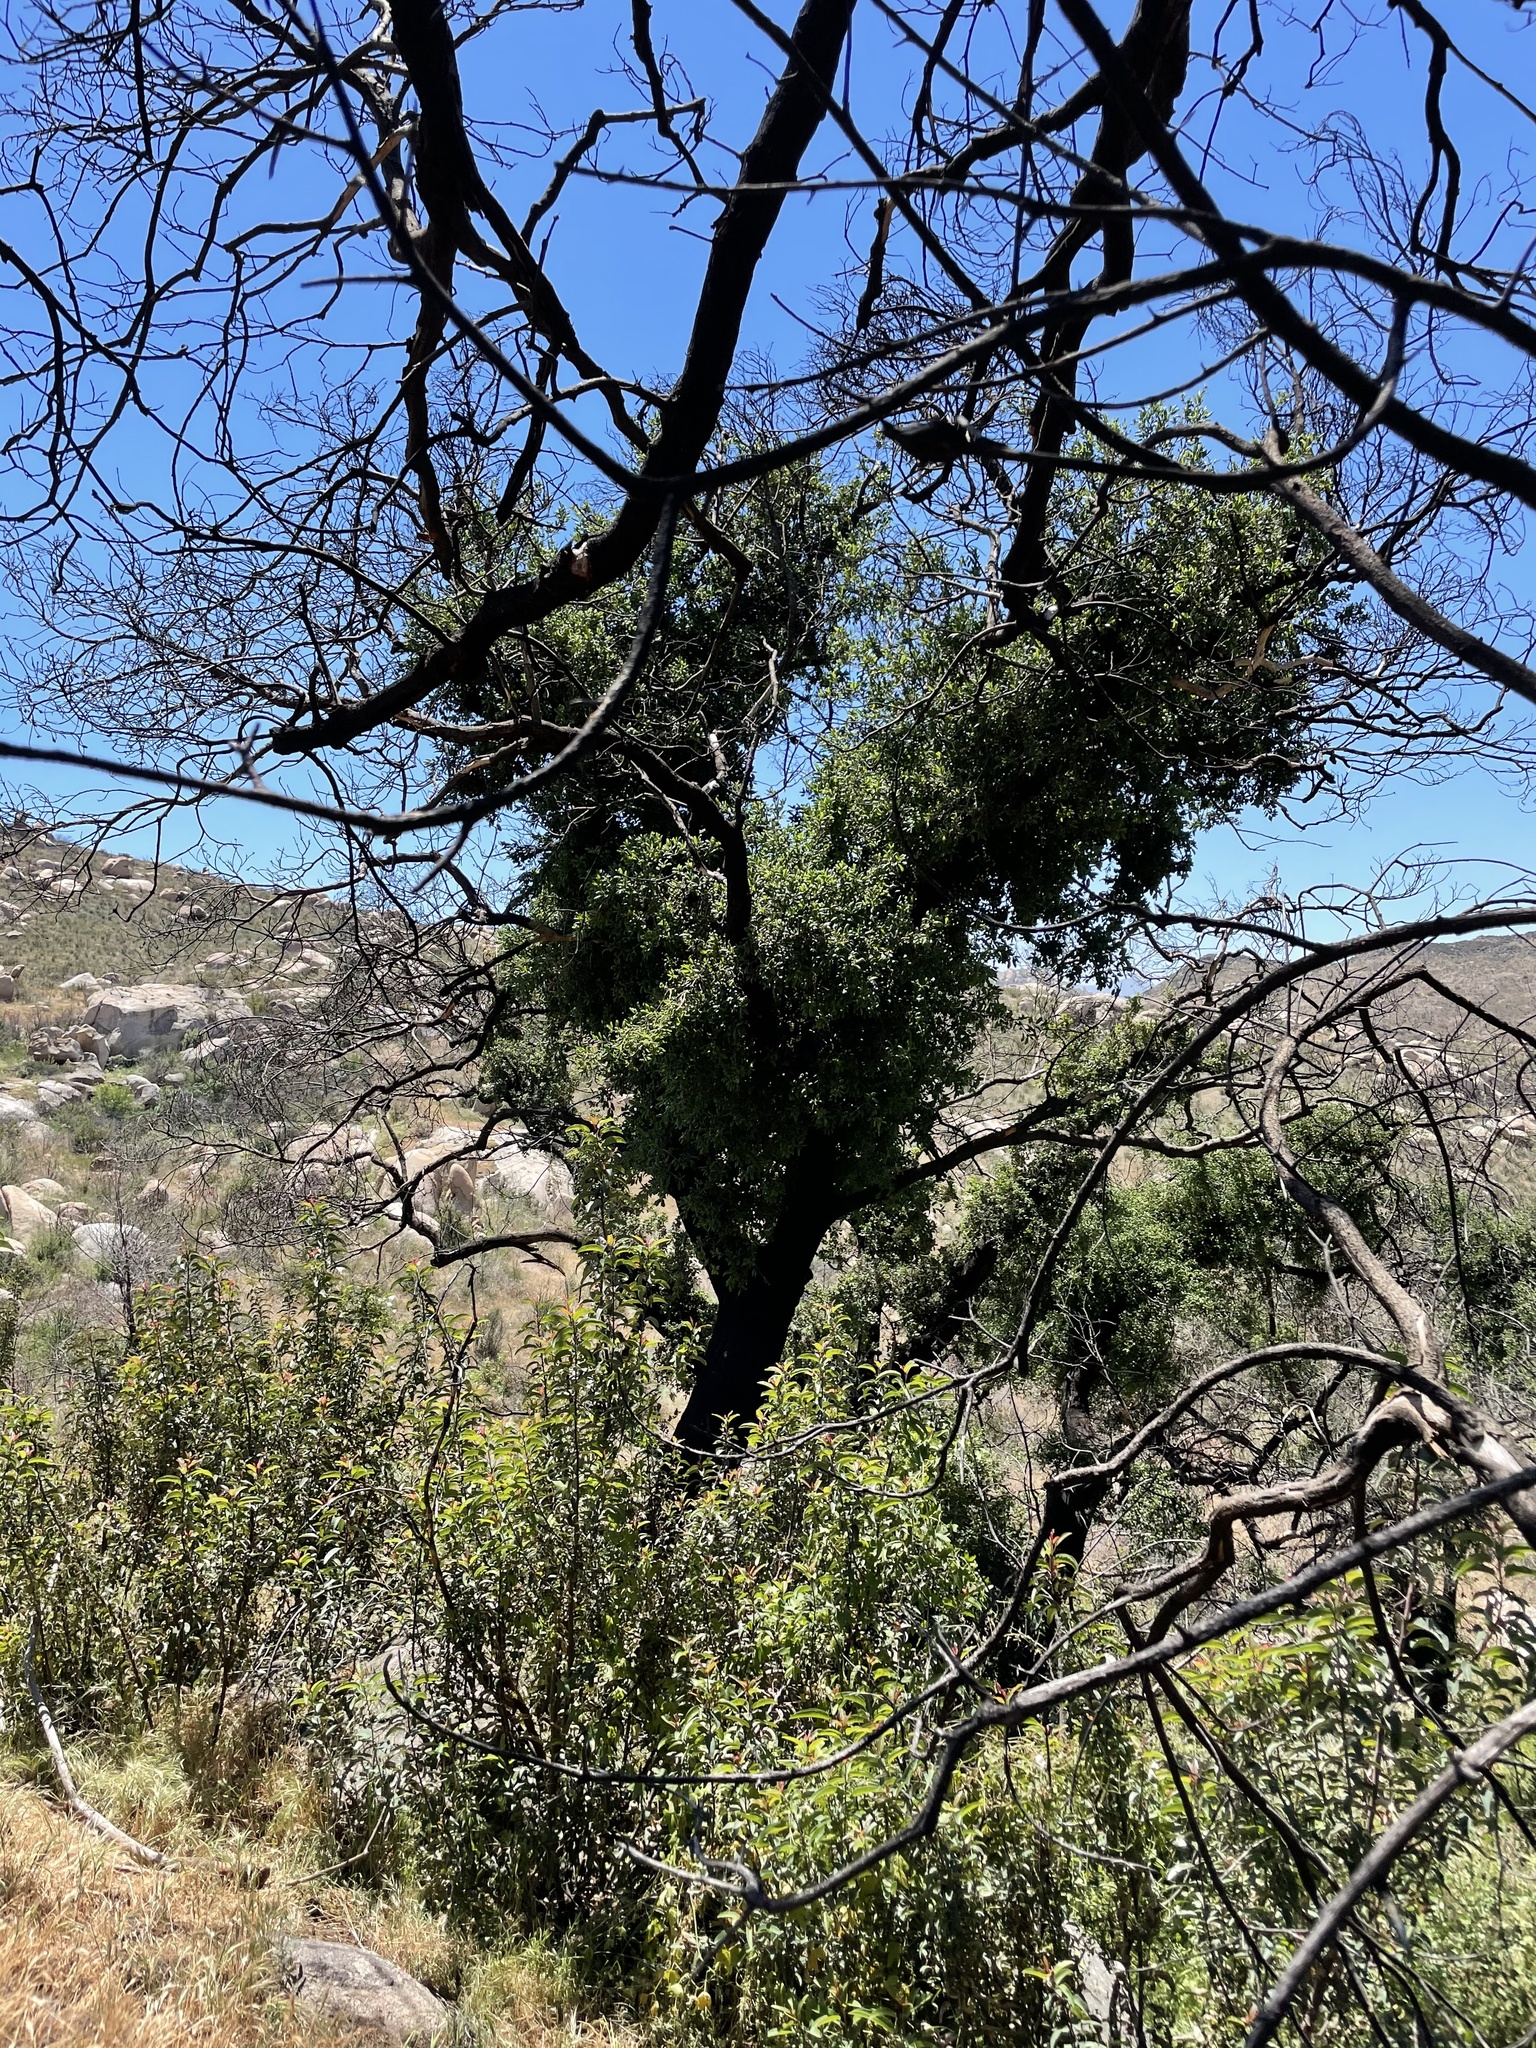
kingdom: Plantae
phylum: Tracheophyta
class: Magnoliopsida
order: Fagales
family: Fagaceae
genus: Quercus
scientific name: Quercus agrifolia
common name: California live oak
